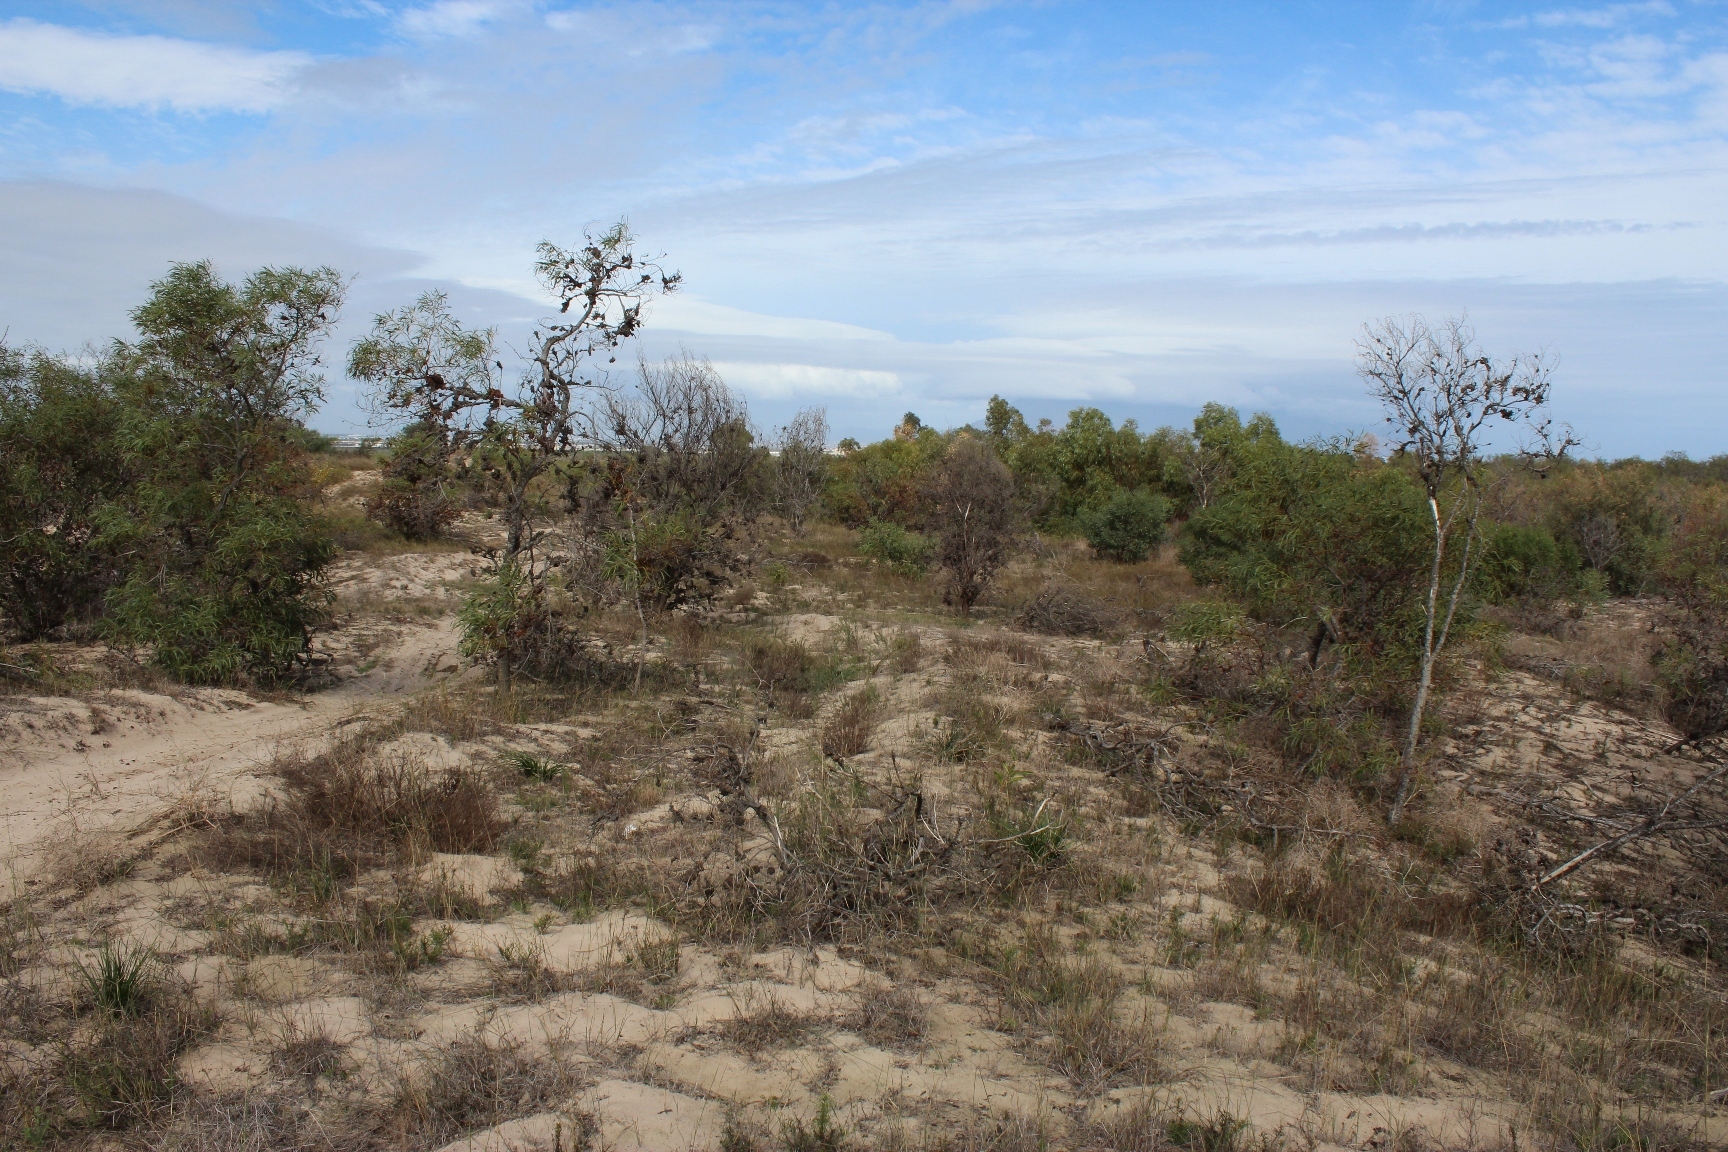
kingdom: Animalia
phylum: Chordata
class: Mammalia
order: Rodentia
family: Bathyergidae
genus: Bathyergus
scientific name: Bathyergus suillus
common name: Cape dune mole rat
